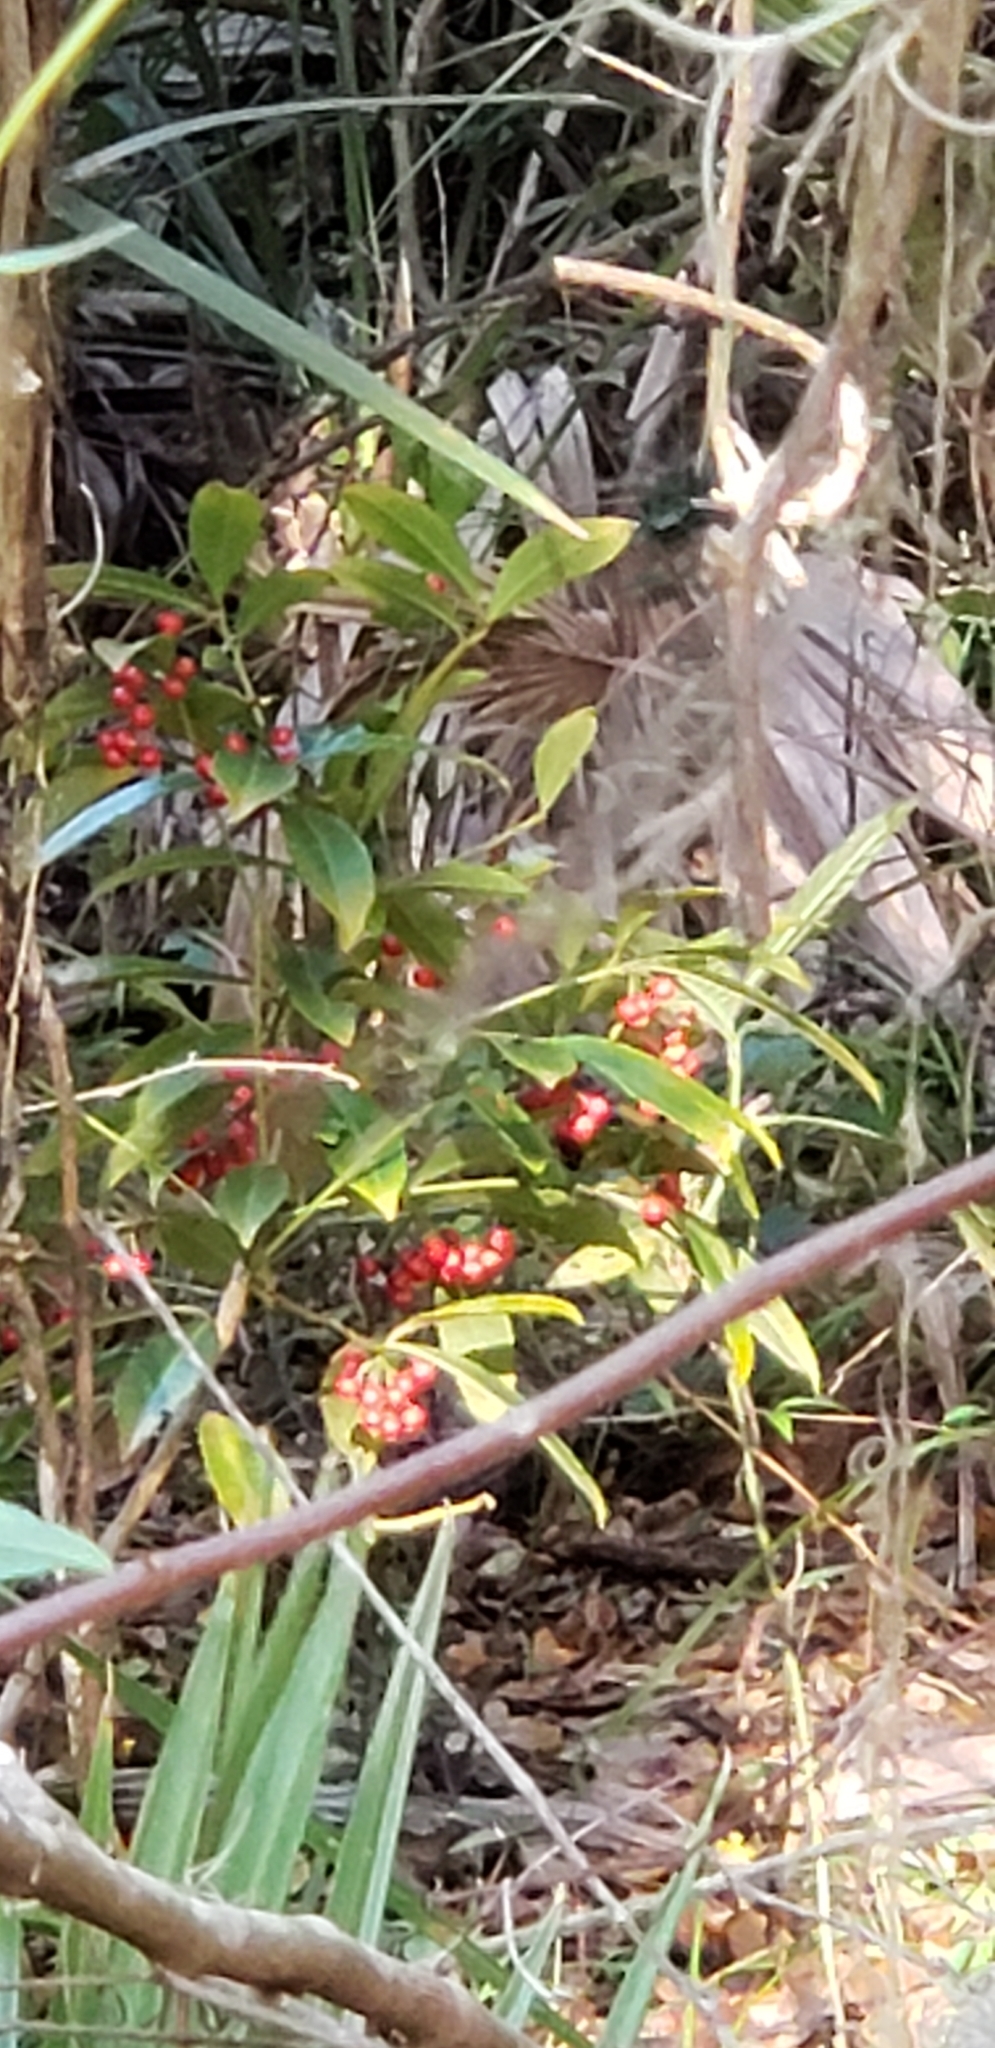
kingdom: Plantae
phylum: Tracheophyta
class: Magnoliopsida
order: Ericales
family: Primulaceae
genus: Ardisia
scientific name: Ardisia crenata
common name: Hen's eyes
